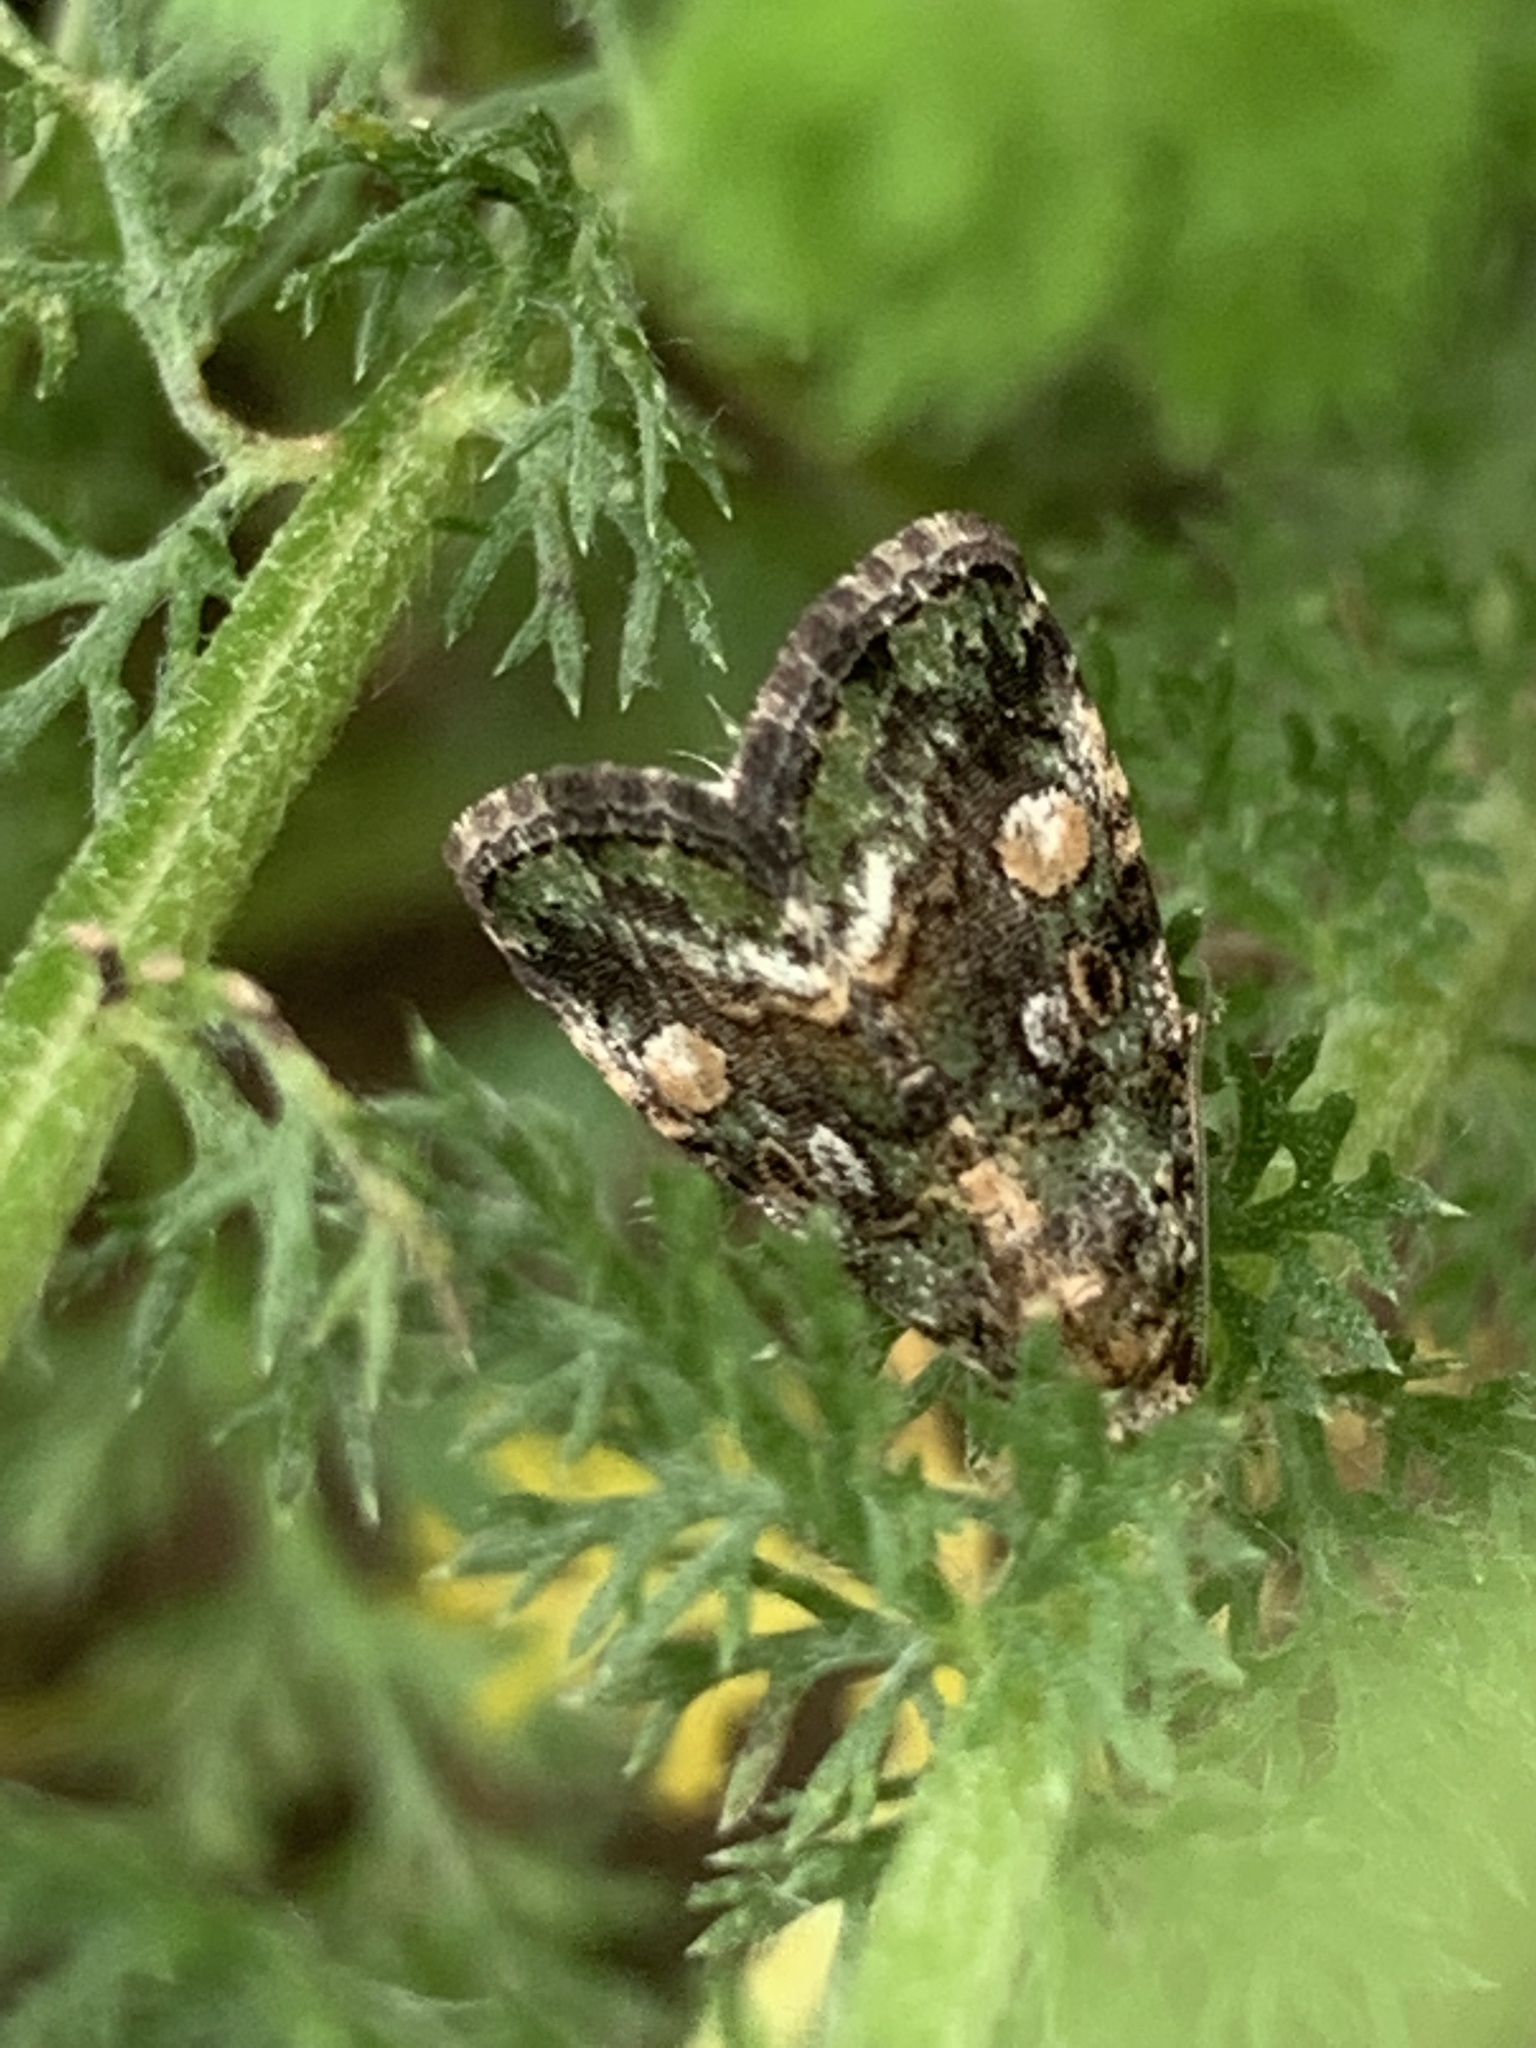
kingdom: Animalia
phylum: Arthropoda
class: Insecta
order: Lepidoptera
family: Noctuidae
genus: Lithacodia
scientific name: Lithacodia musta
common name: Small mossy glyph
